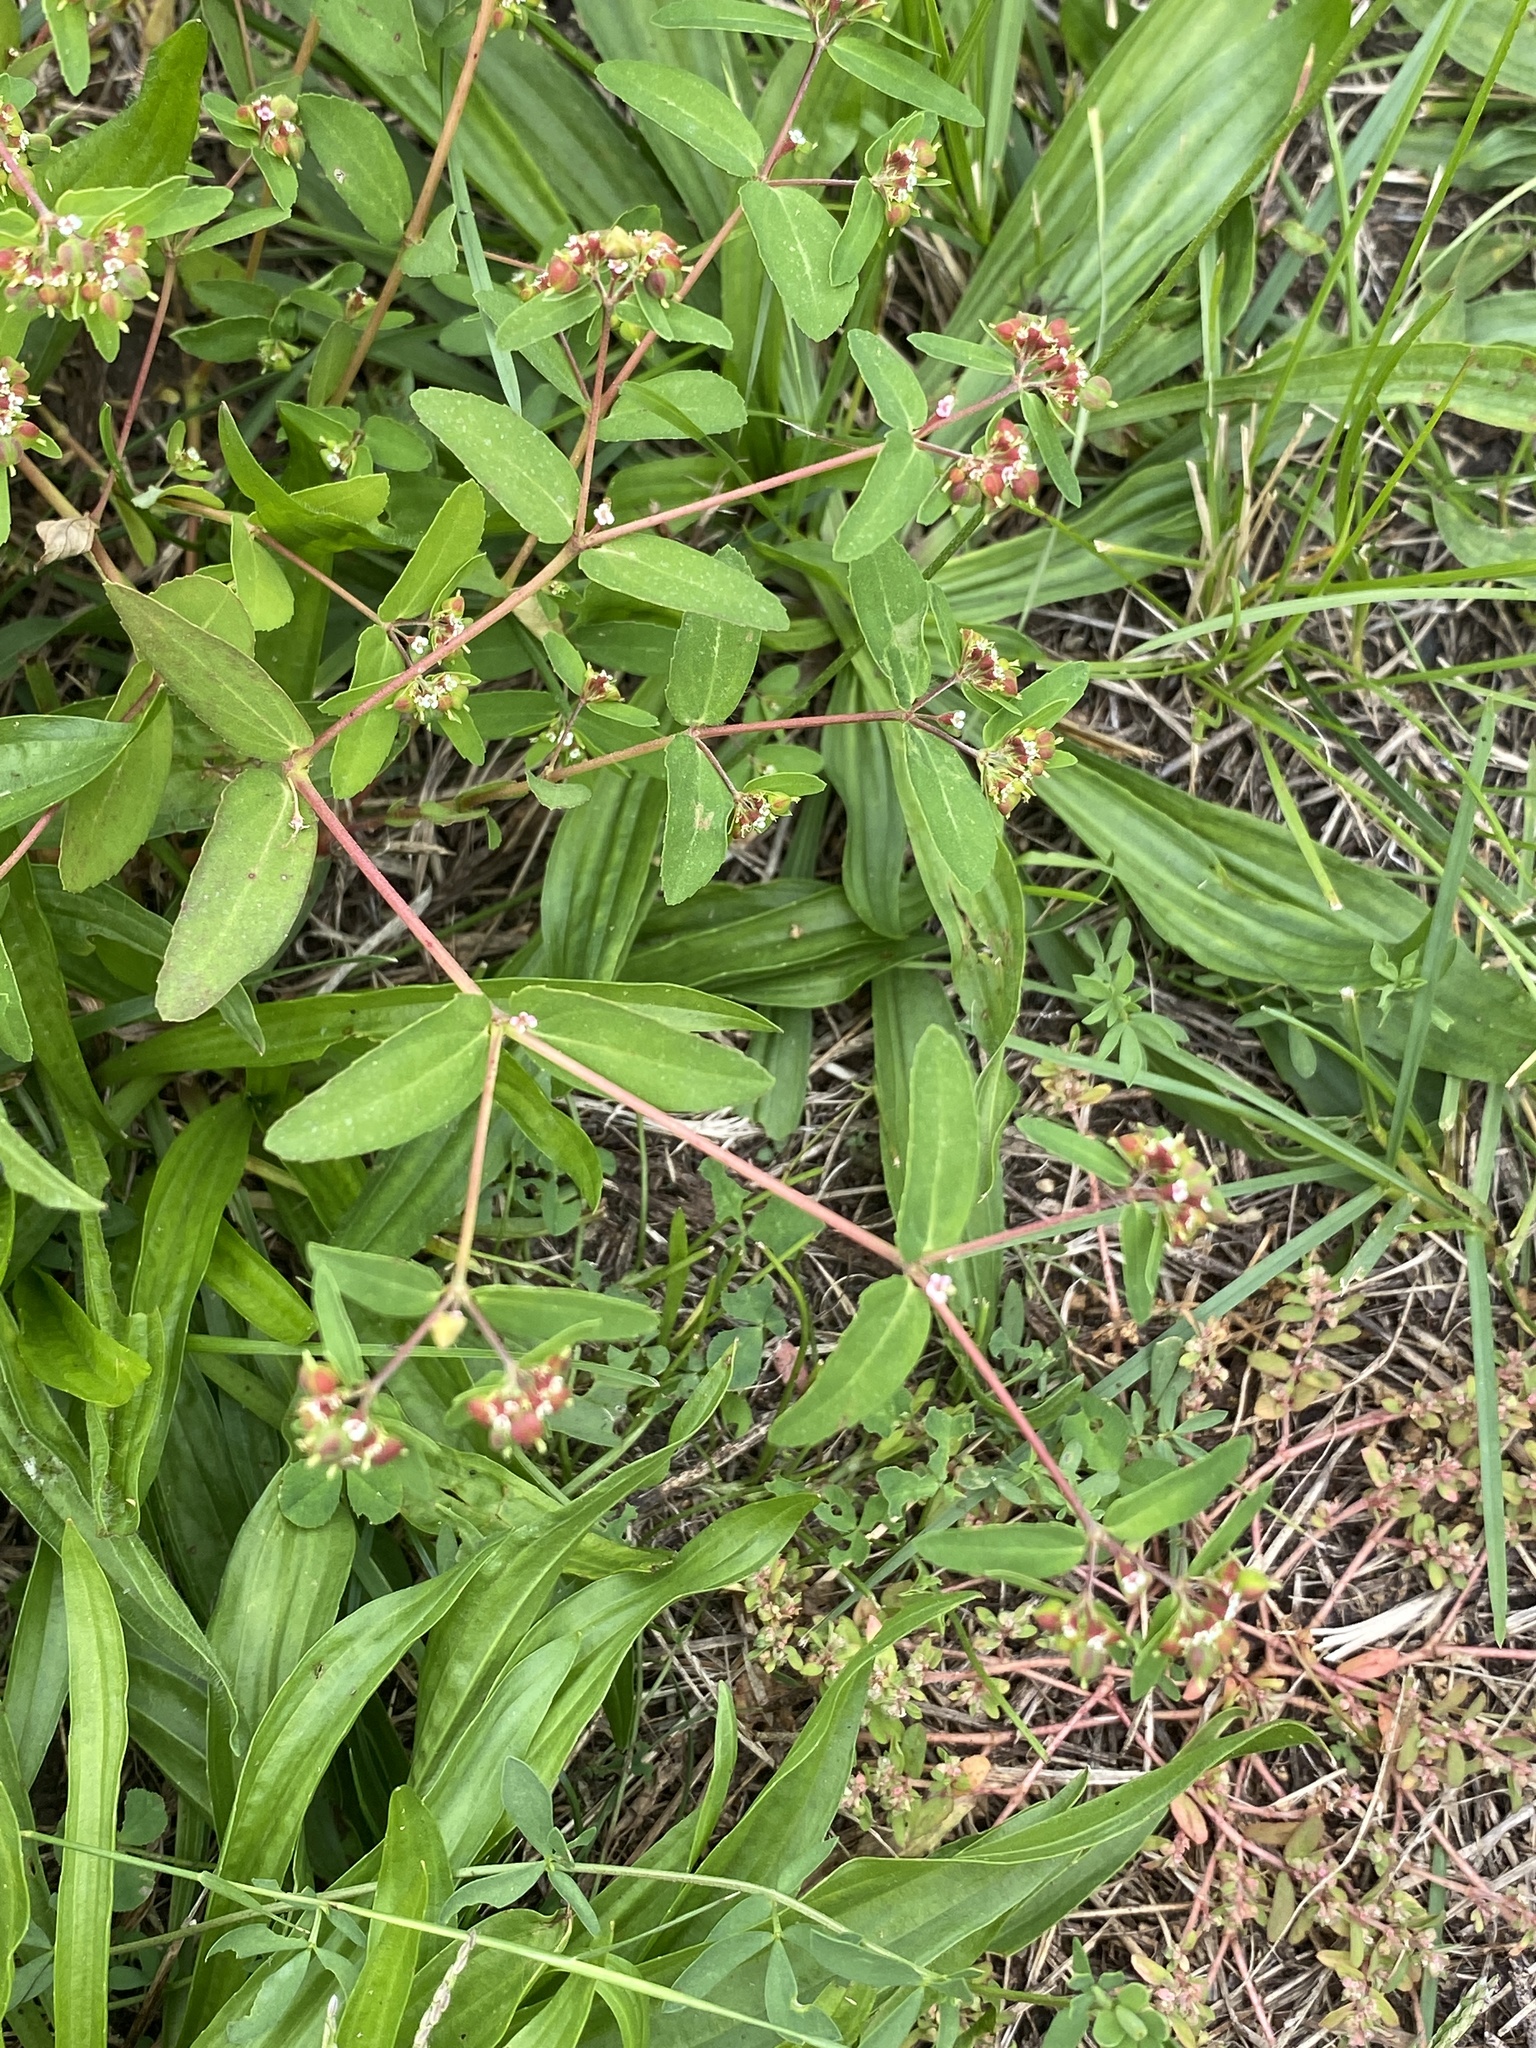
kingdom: Plantae
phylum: Tracheophyta
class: Magnoliopsida
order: Malpighiales
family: Euphorbiaceae
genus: Euphorbia
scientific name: Euphorbia nutans
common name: Eyebane
